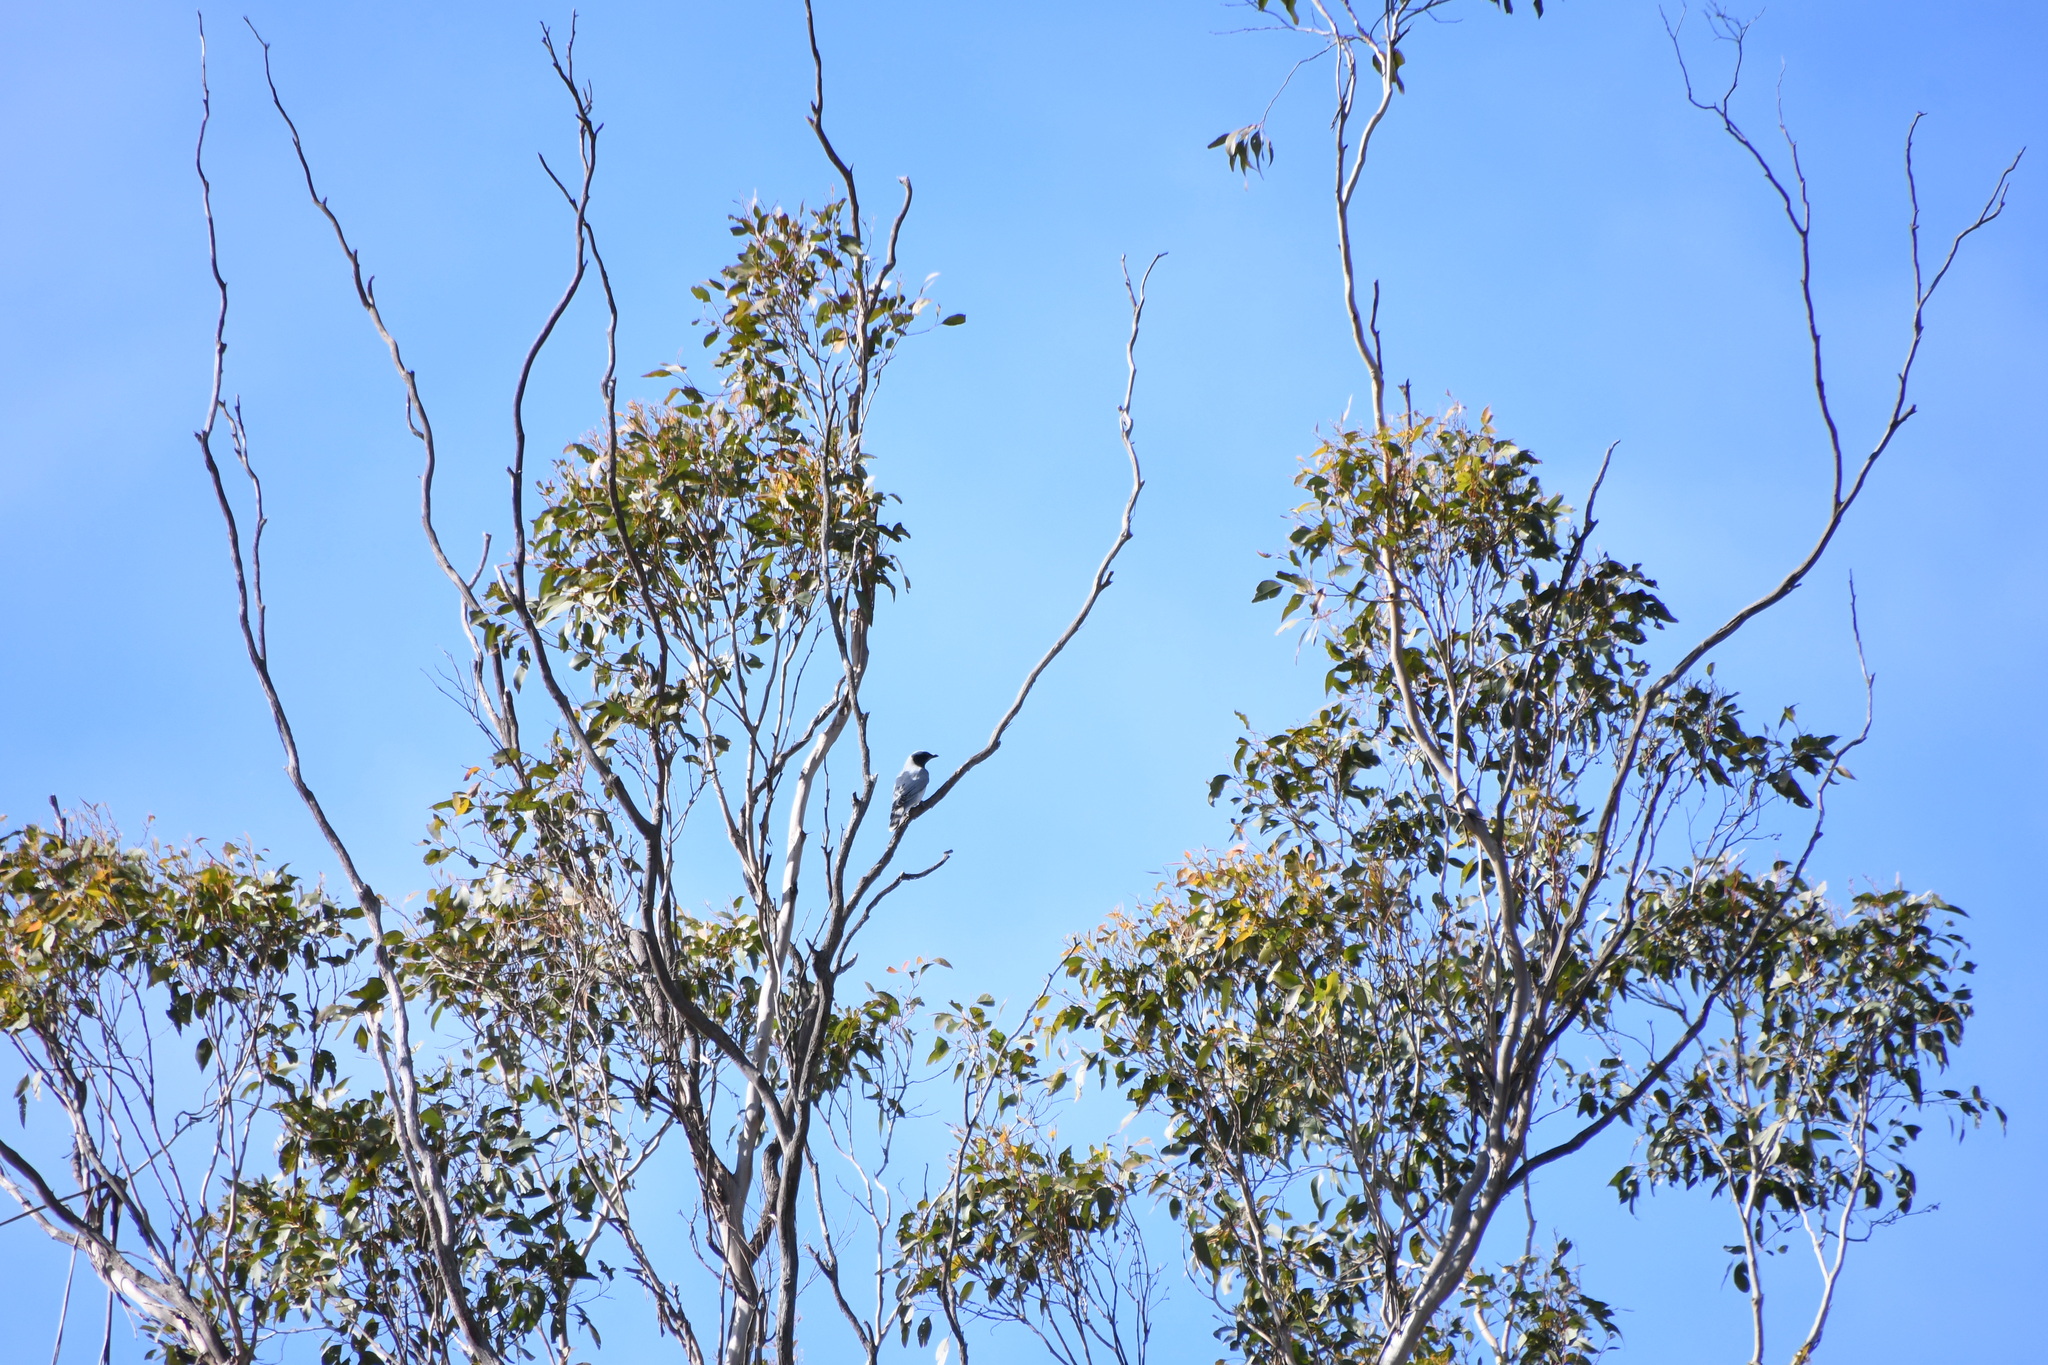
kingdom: Animalia
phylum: Chordata
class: Aves
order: Passeriformes
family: Campephagidae
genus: Coracina
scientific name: Coracina novaehollandiae
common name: Black-faced cuckooshrike
